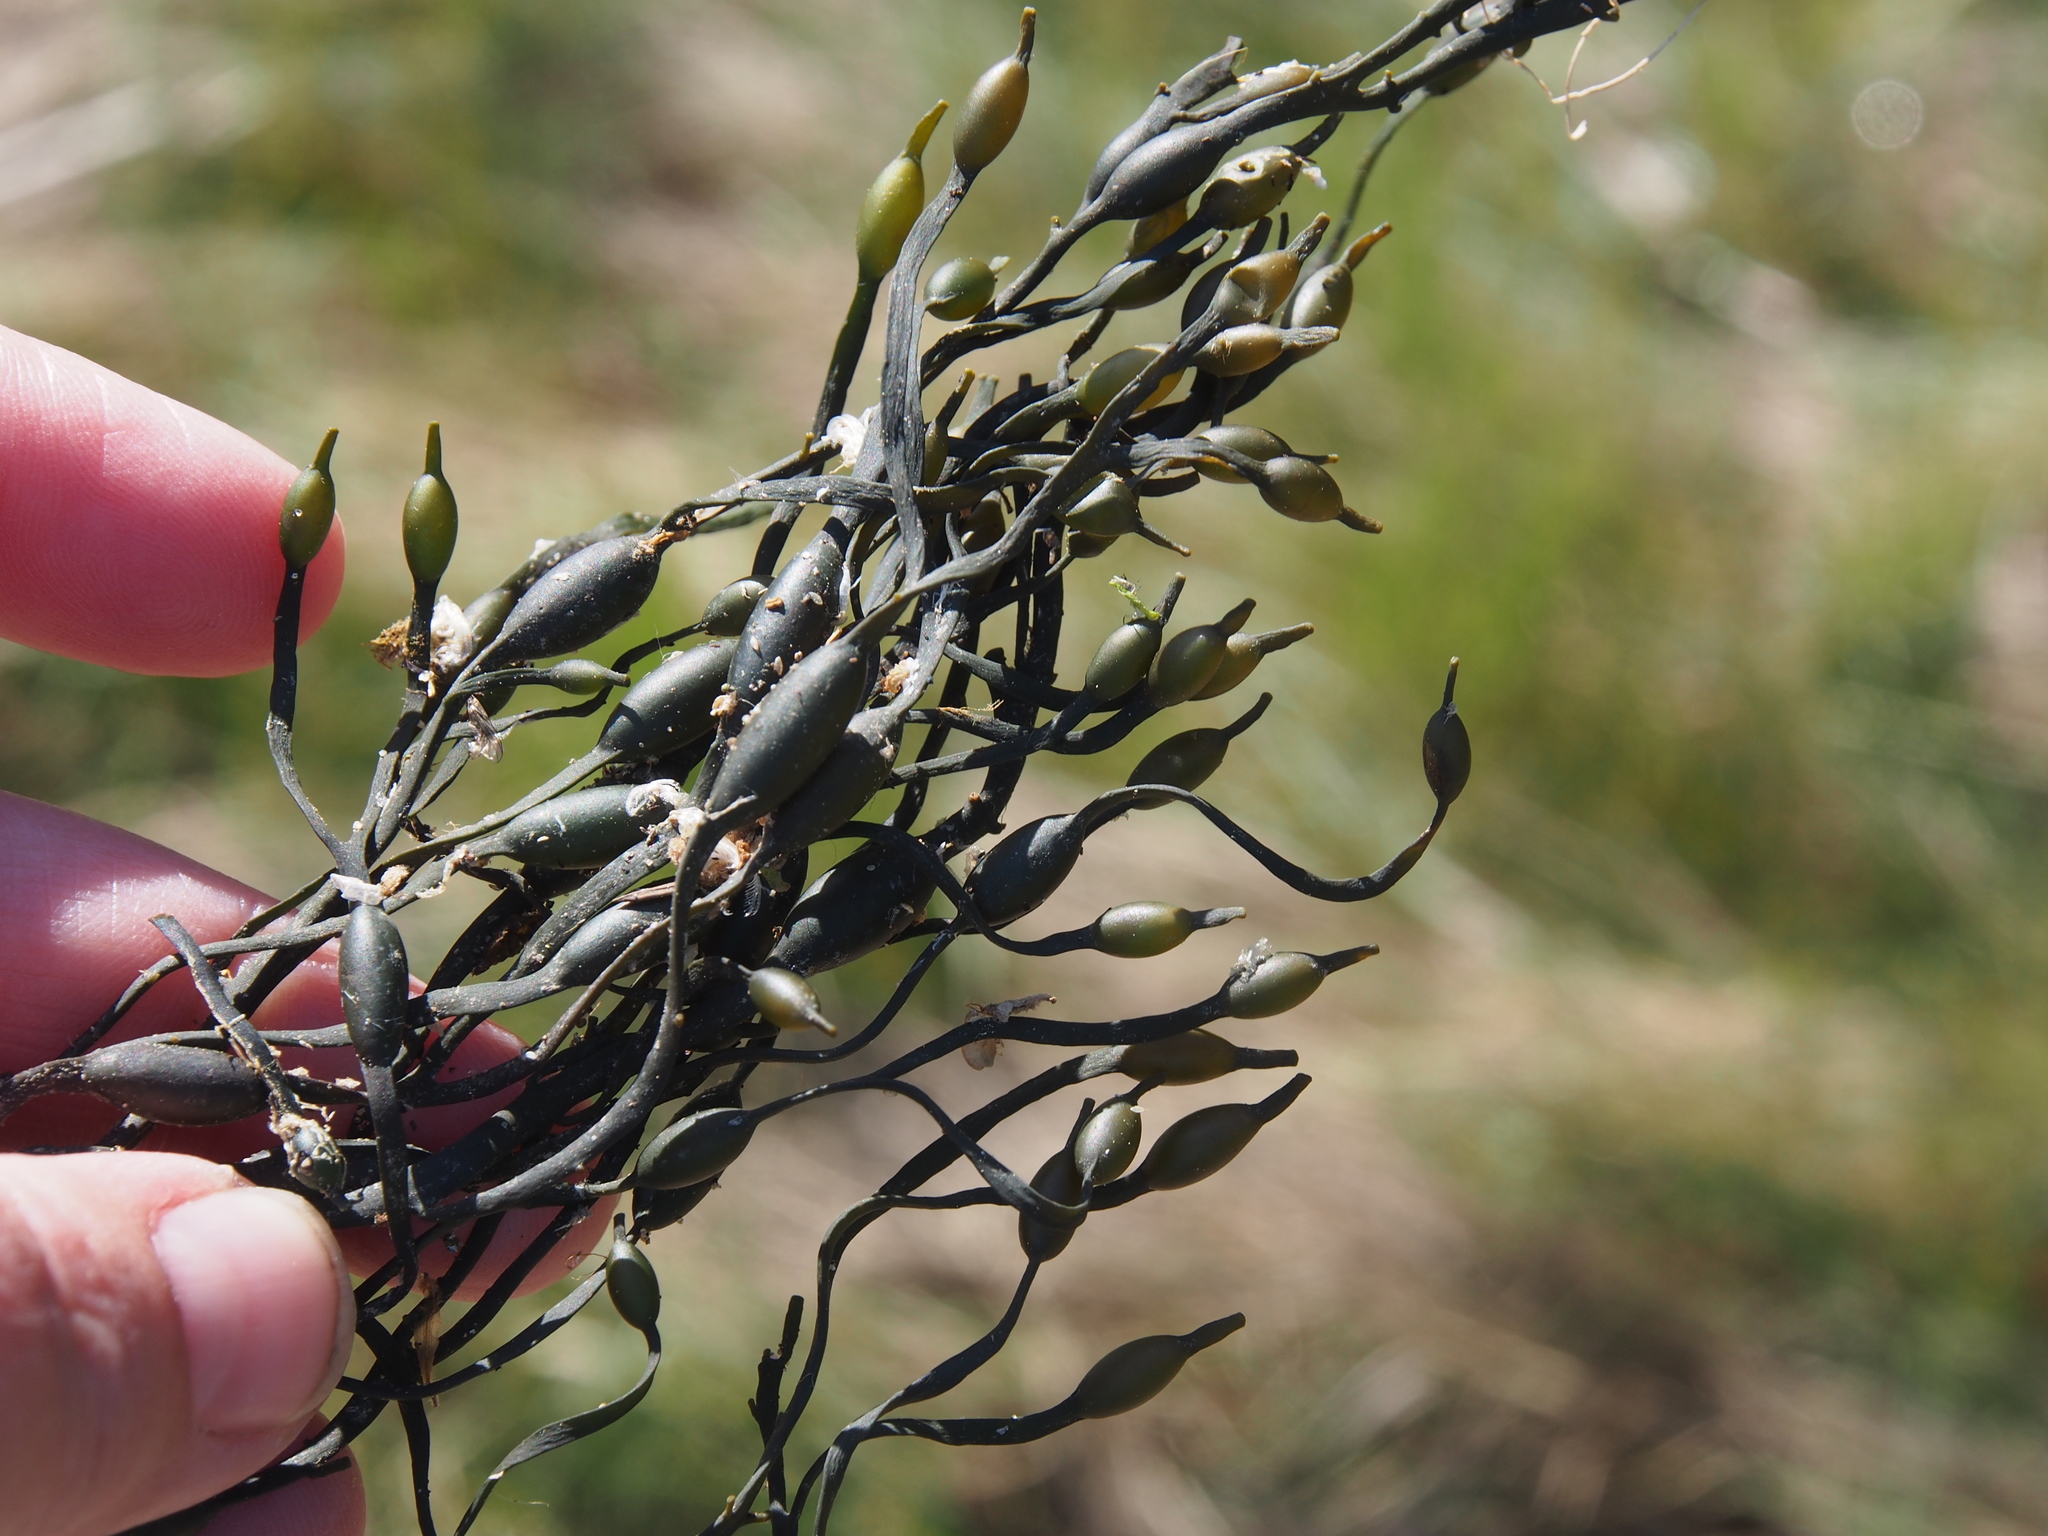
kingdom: Chromista
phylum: Ochrophyta
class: Phaeophyceae
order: Fucales
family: Fucaceae
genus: Ascophyllum
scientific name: Ascophyllum nodosum
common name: Knotted wrack
